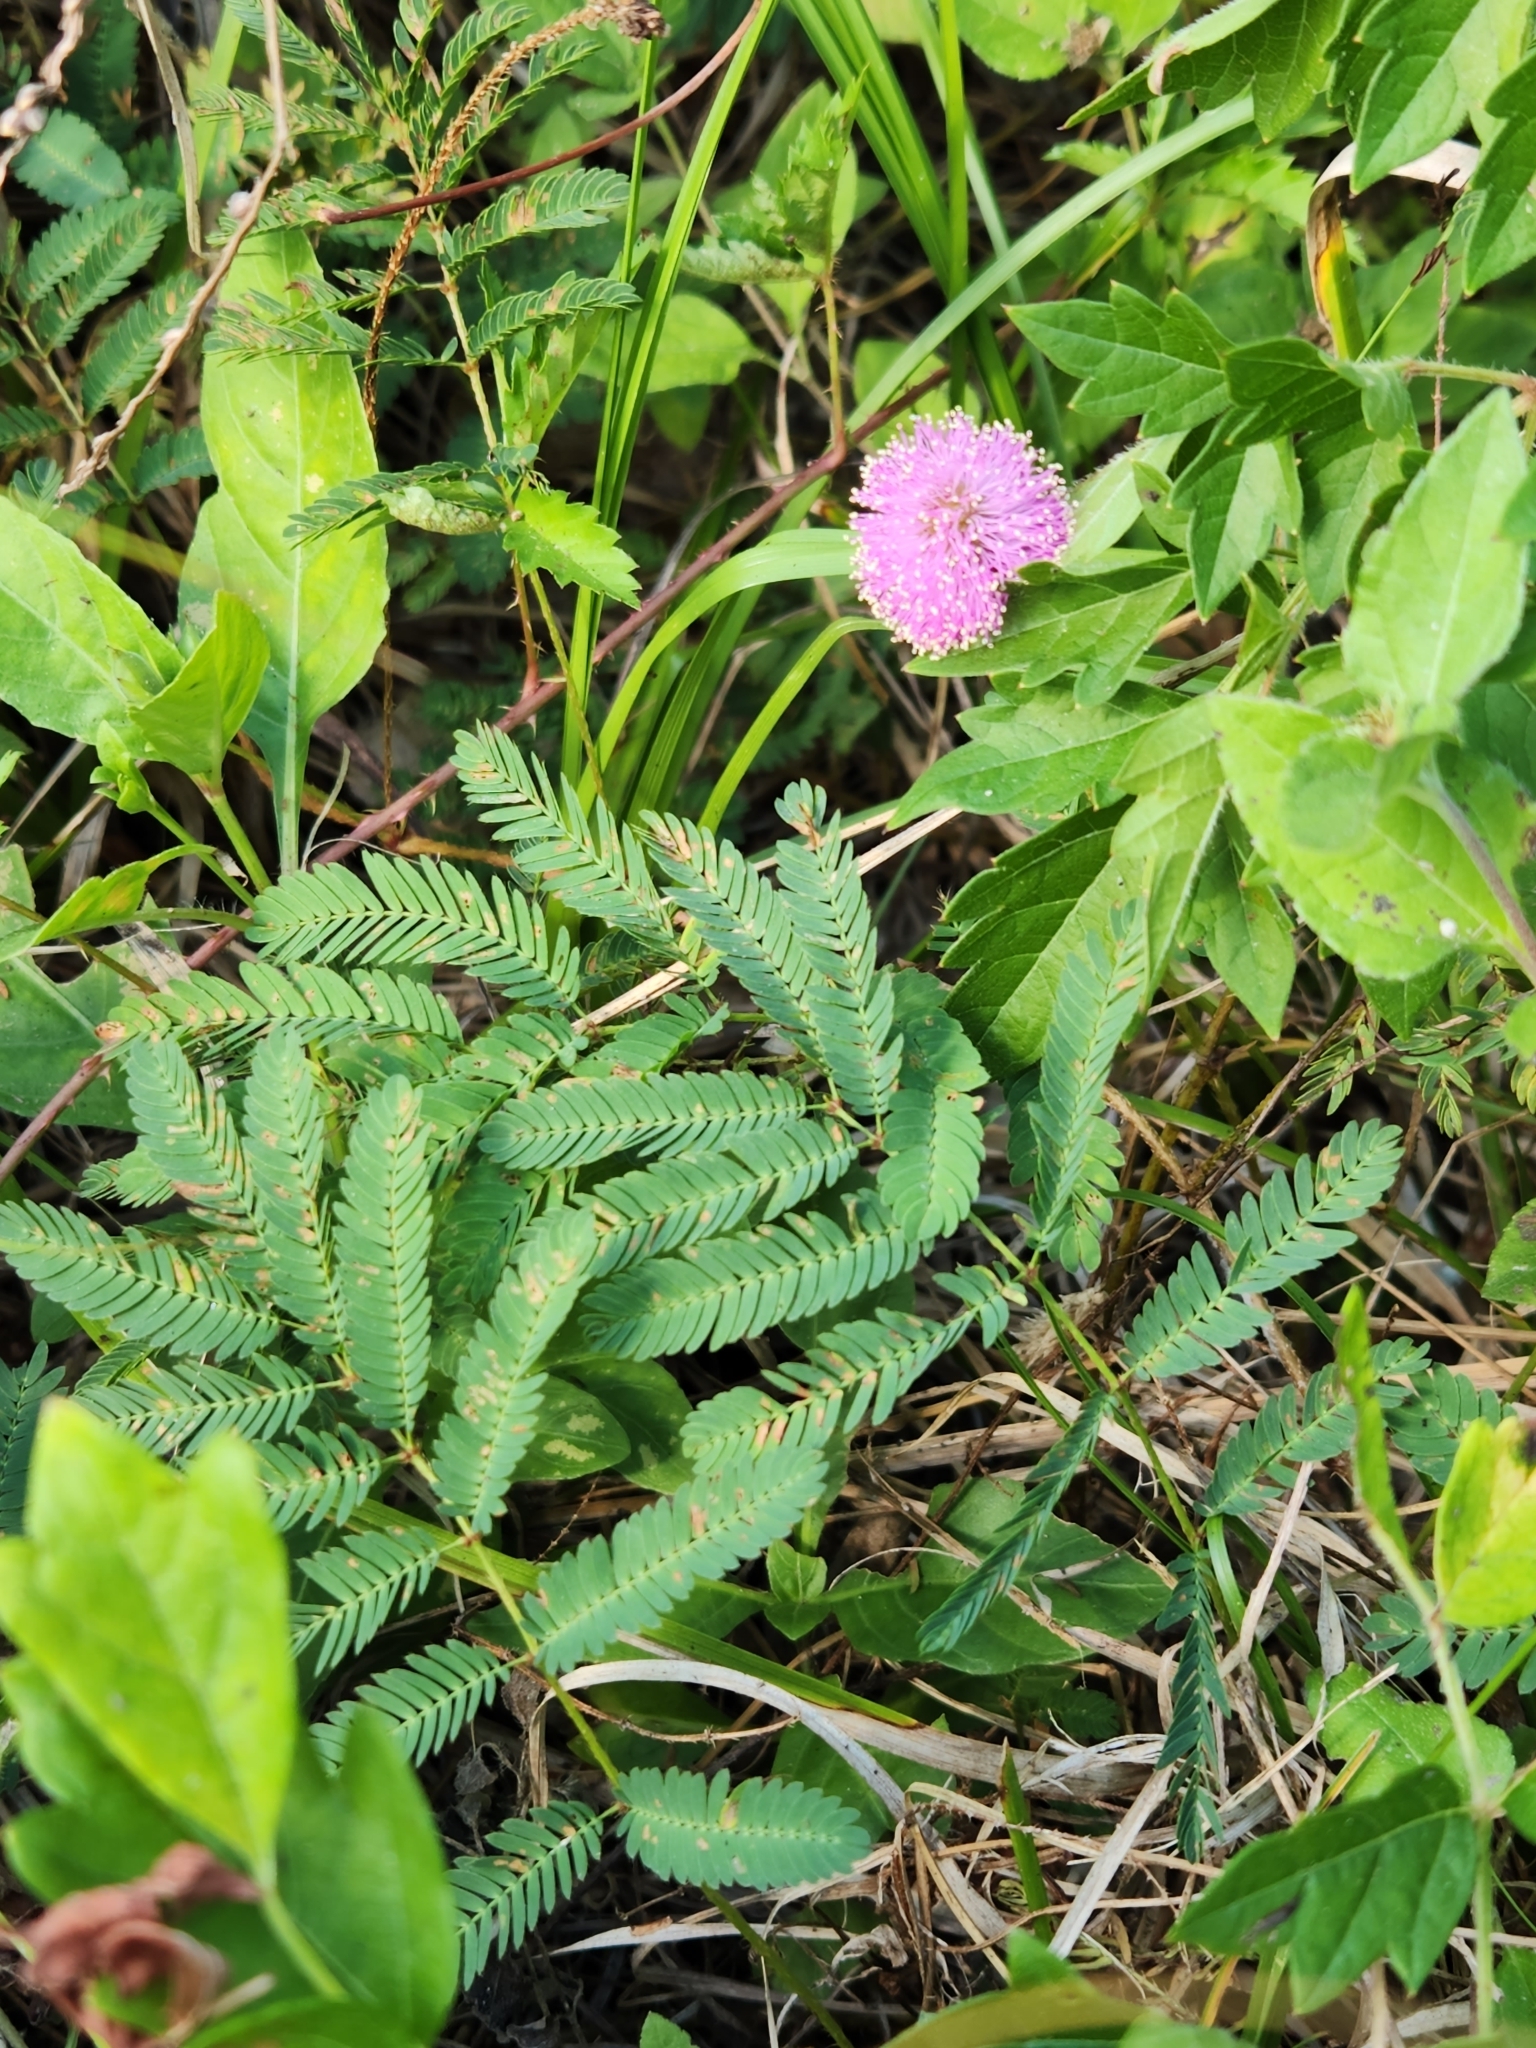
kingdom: Plantae
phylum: Tracheophyta
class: Magnoliopsida
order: Fabales
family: Fabaceae
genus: Mimosa
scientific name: Mimosa strigillosa
